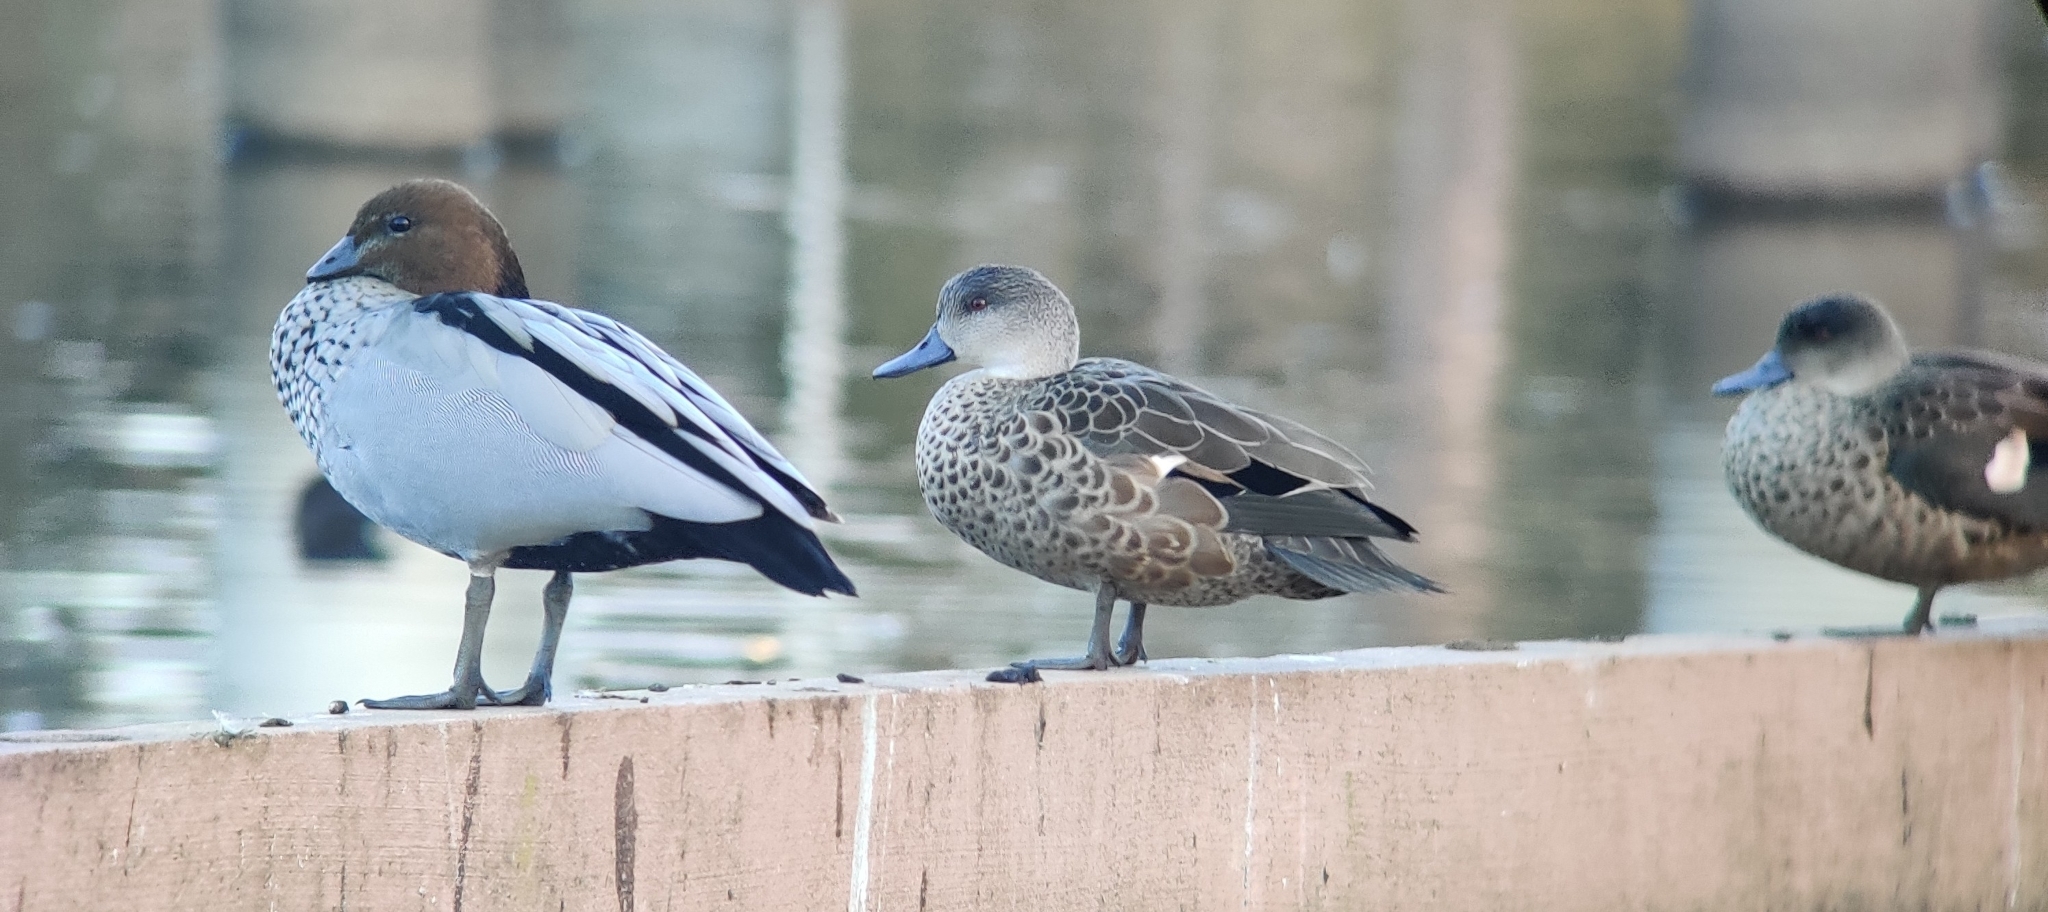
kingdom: Animalia
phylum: Chordata
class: Aves
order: Anseriformes
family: Anatidae
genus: Anas
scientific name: Anas gracilis
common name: Grey teal
